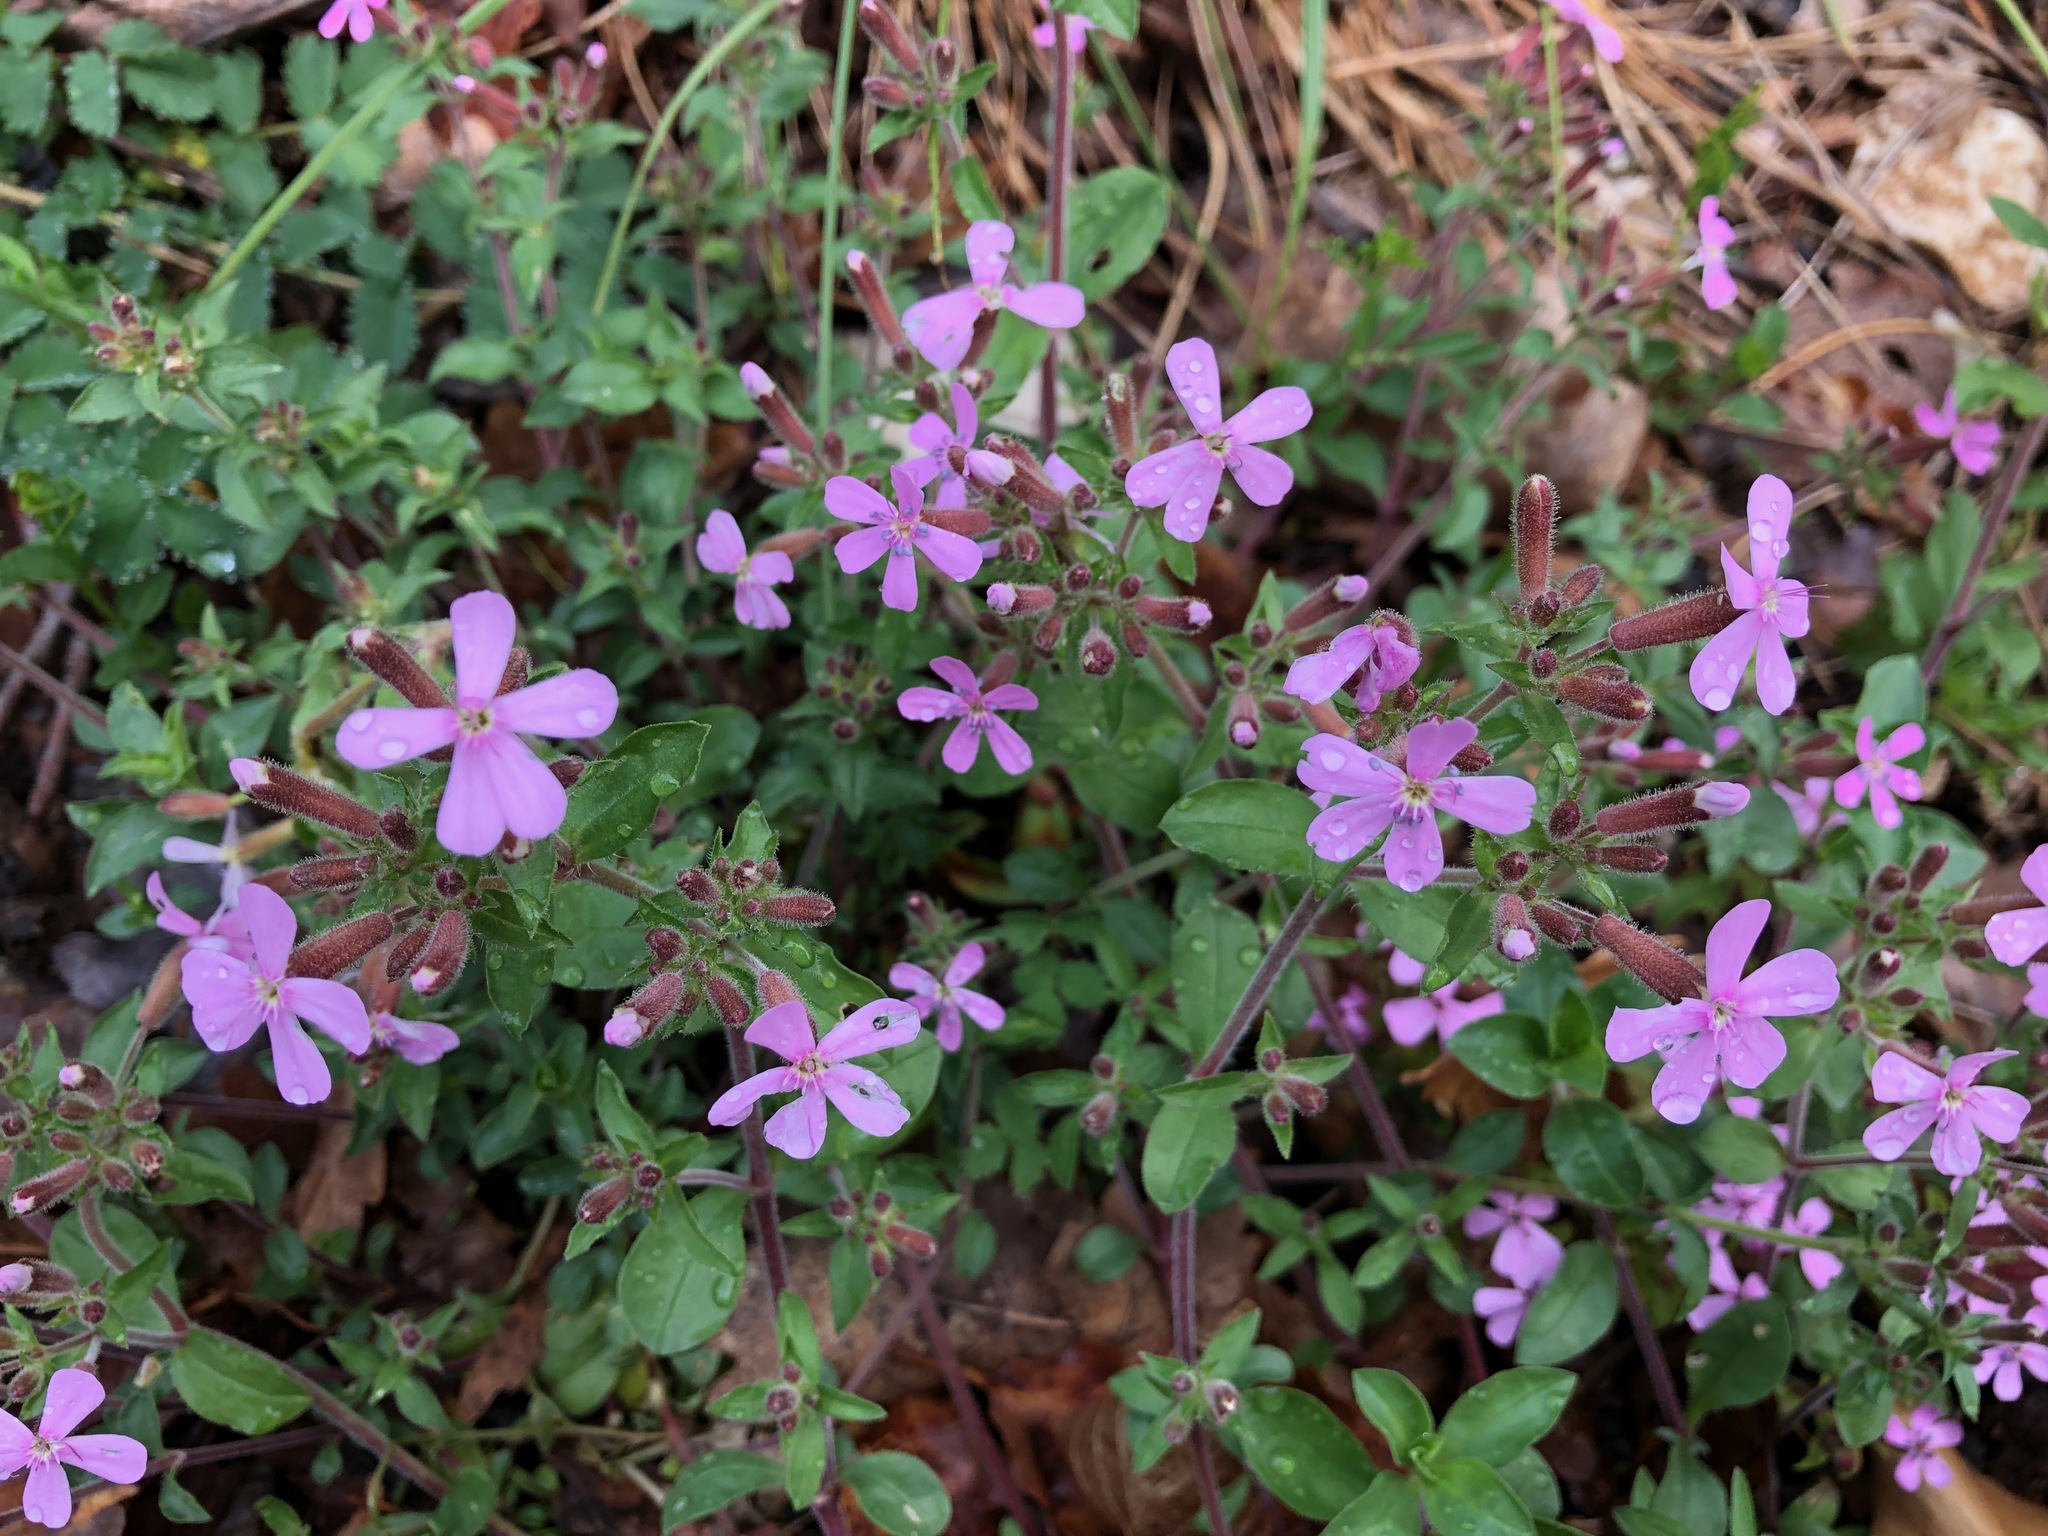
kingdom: Plantae
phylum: Tracheophyta
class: Magnoliopsida
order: Caryophyllales
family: Caryophyllaceae
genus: Saponaria
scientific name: Saponaria ocymoides
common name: Rock soapwort
